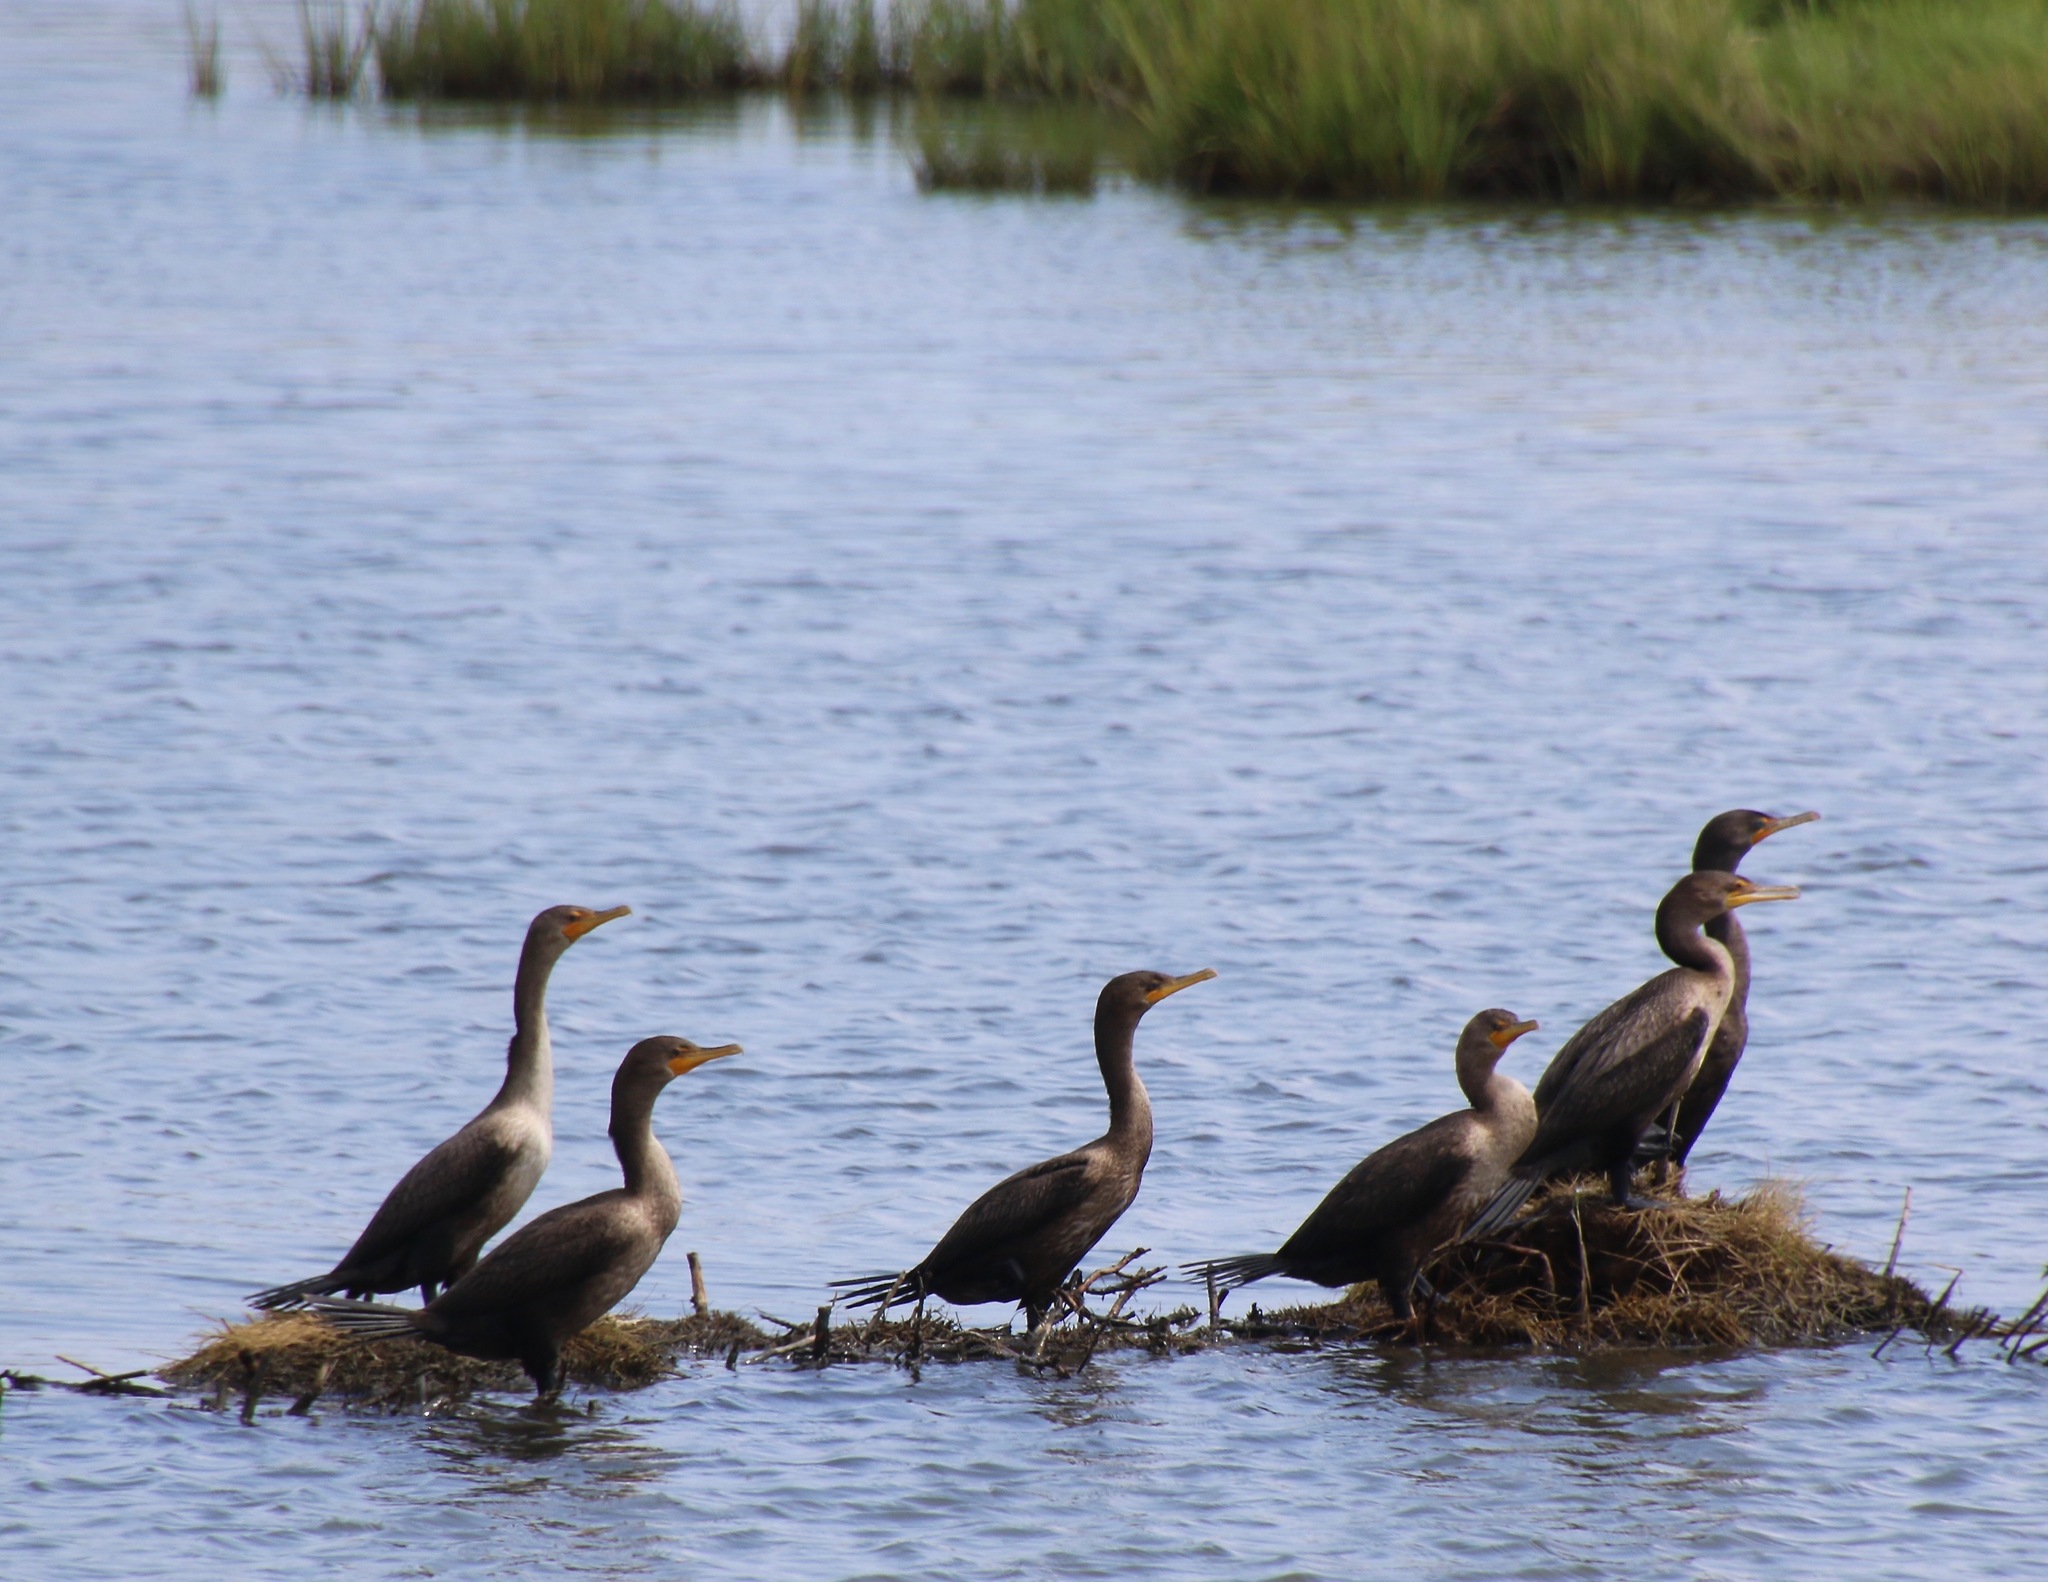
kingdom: Animalia
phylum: Chordata
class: Aves
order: Suliformes
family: Phalacrocoracidae
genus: Phalacrocorax
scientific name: Phalacrocorax auritus
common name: Double-crested cormorant
